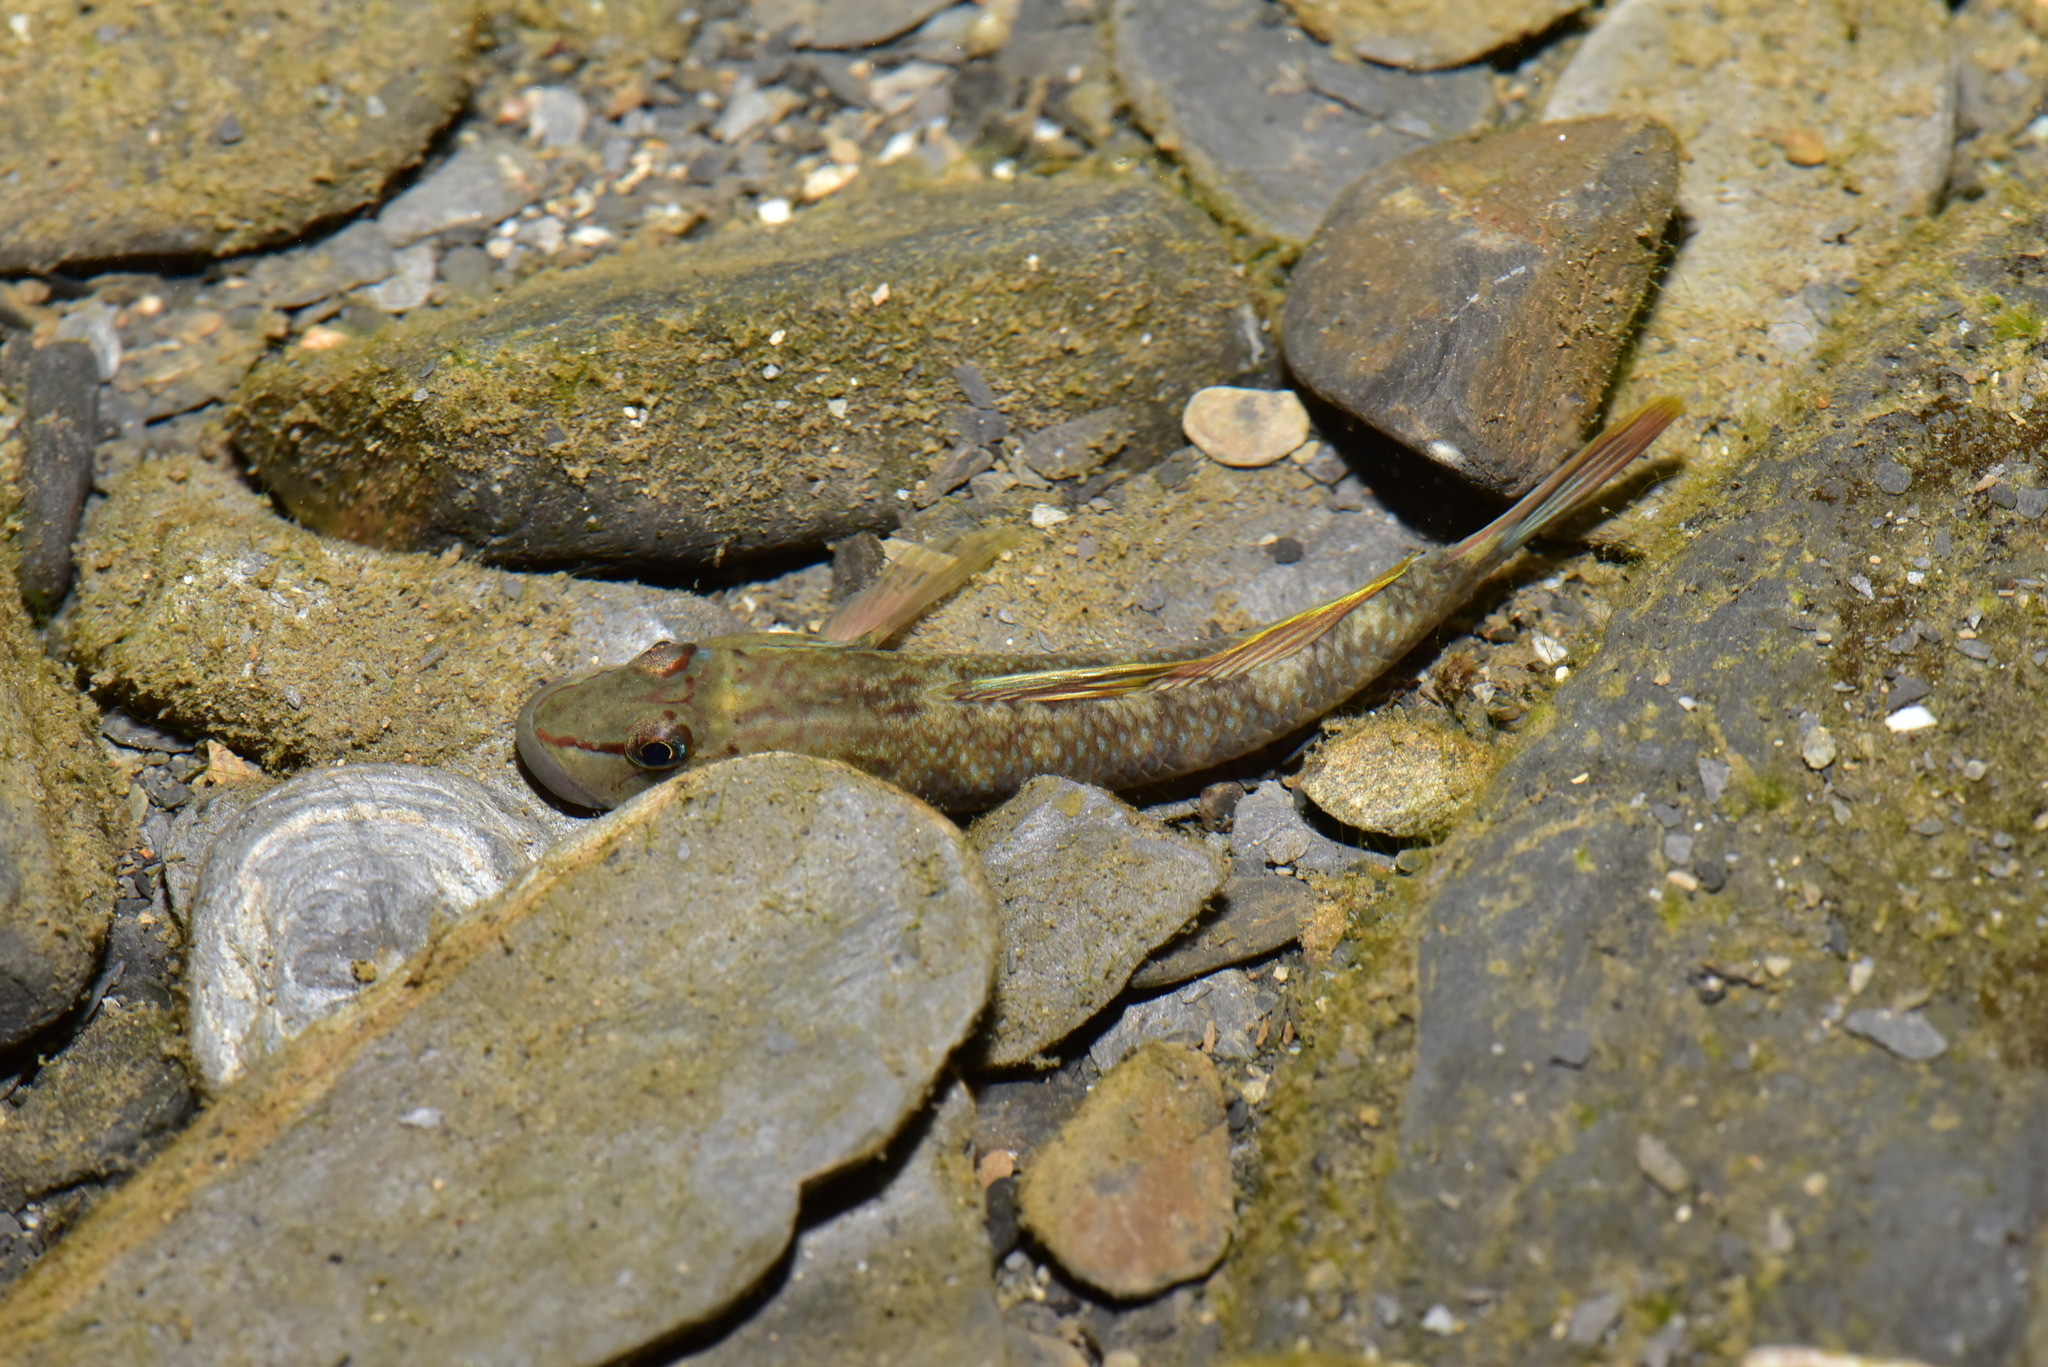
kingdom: Animalia
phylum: Chordata
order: Perciformes
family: Gobiidae
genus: Rhinogobius
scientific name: Rhinogobius candidianus
